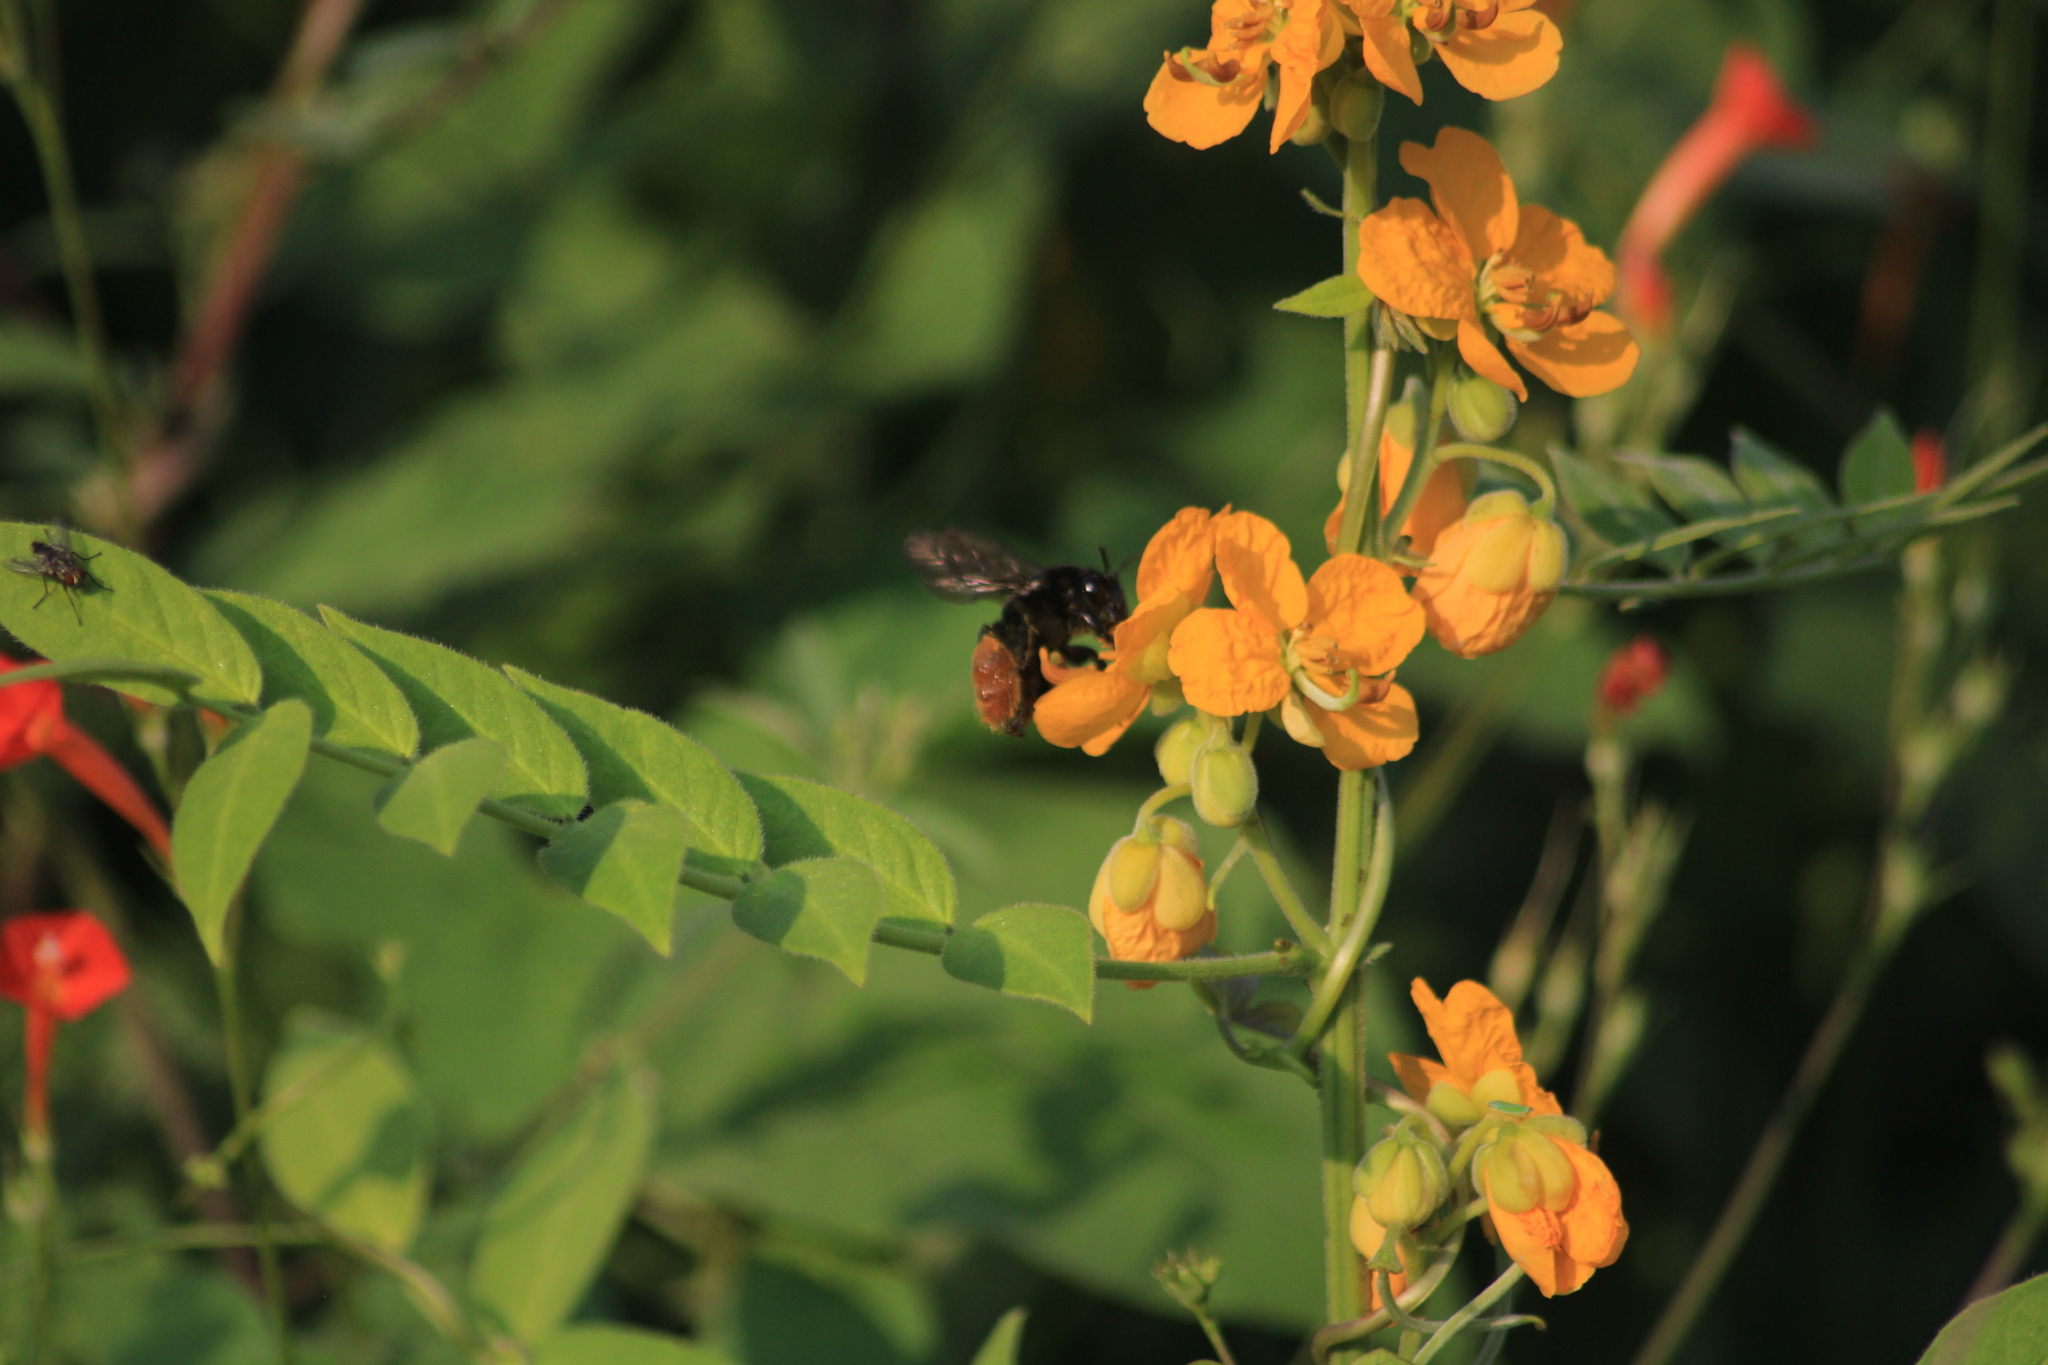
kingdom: Animalia
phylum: Arthropoda
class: Insecta
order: Hymenoptera
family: Apidae
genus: Epicharis
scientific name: Epicharis elegans
